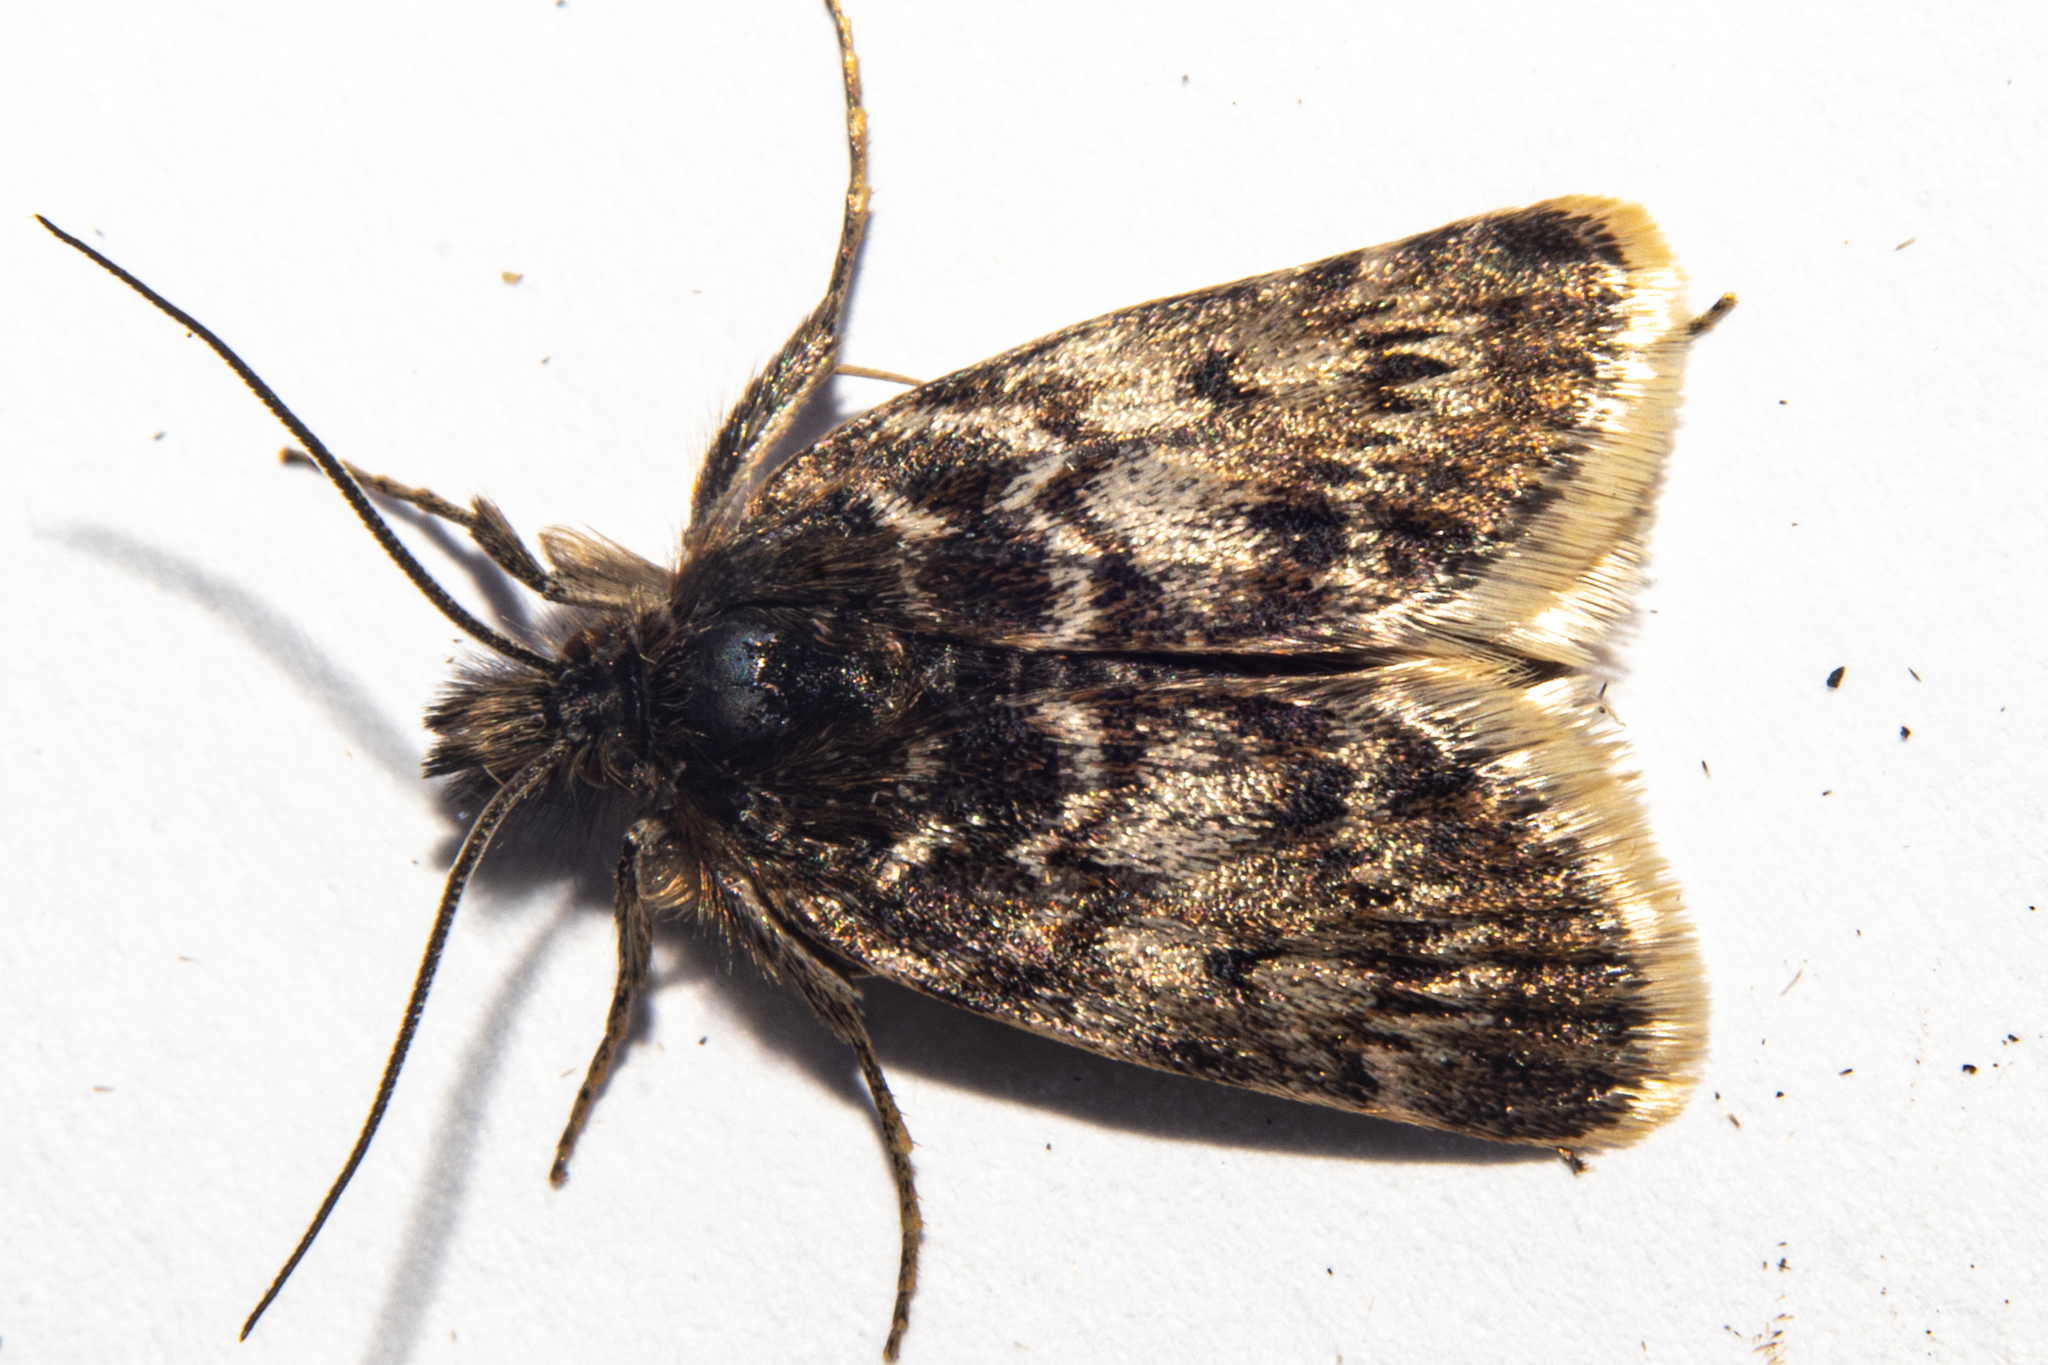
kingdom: Animalia
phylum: Arthropoda
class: Insecta
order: Lepidoptera
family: Crambidae
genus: Tauroscopa
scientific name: Tauroscopa gorgopis
